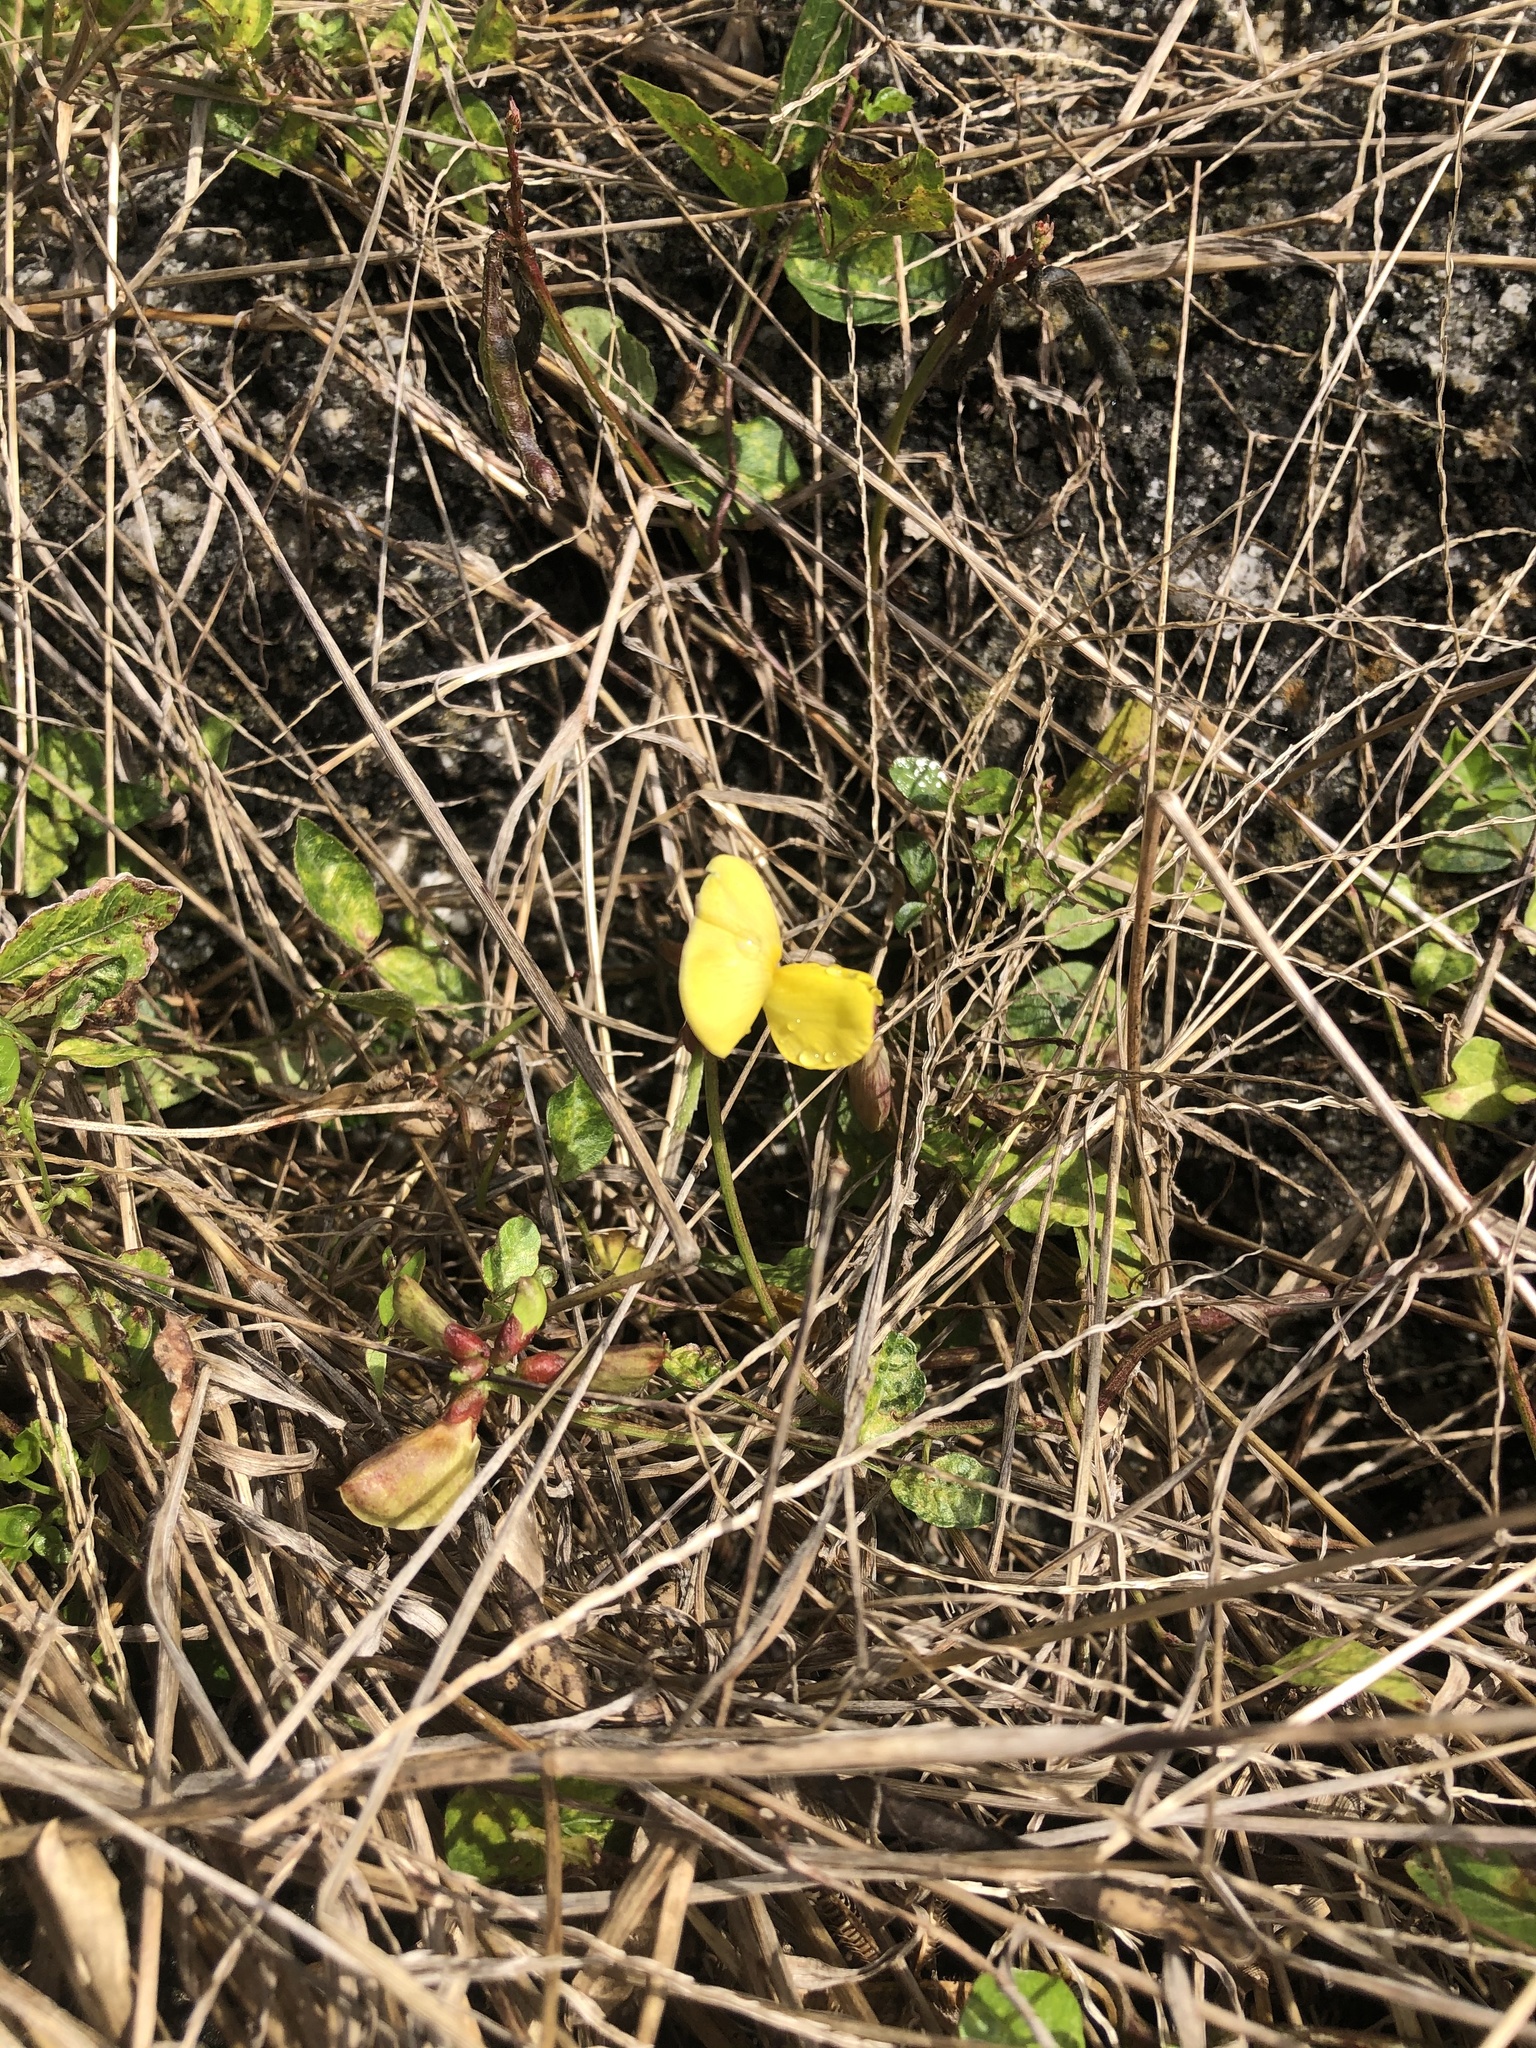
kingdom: Plantae
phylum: Tracheophyta
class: Magnoliopsida
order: Fabales
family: Fabaceae
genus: Vigna
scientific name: Vigna luteola
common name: Hairypod cowpea
